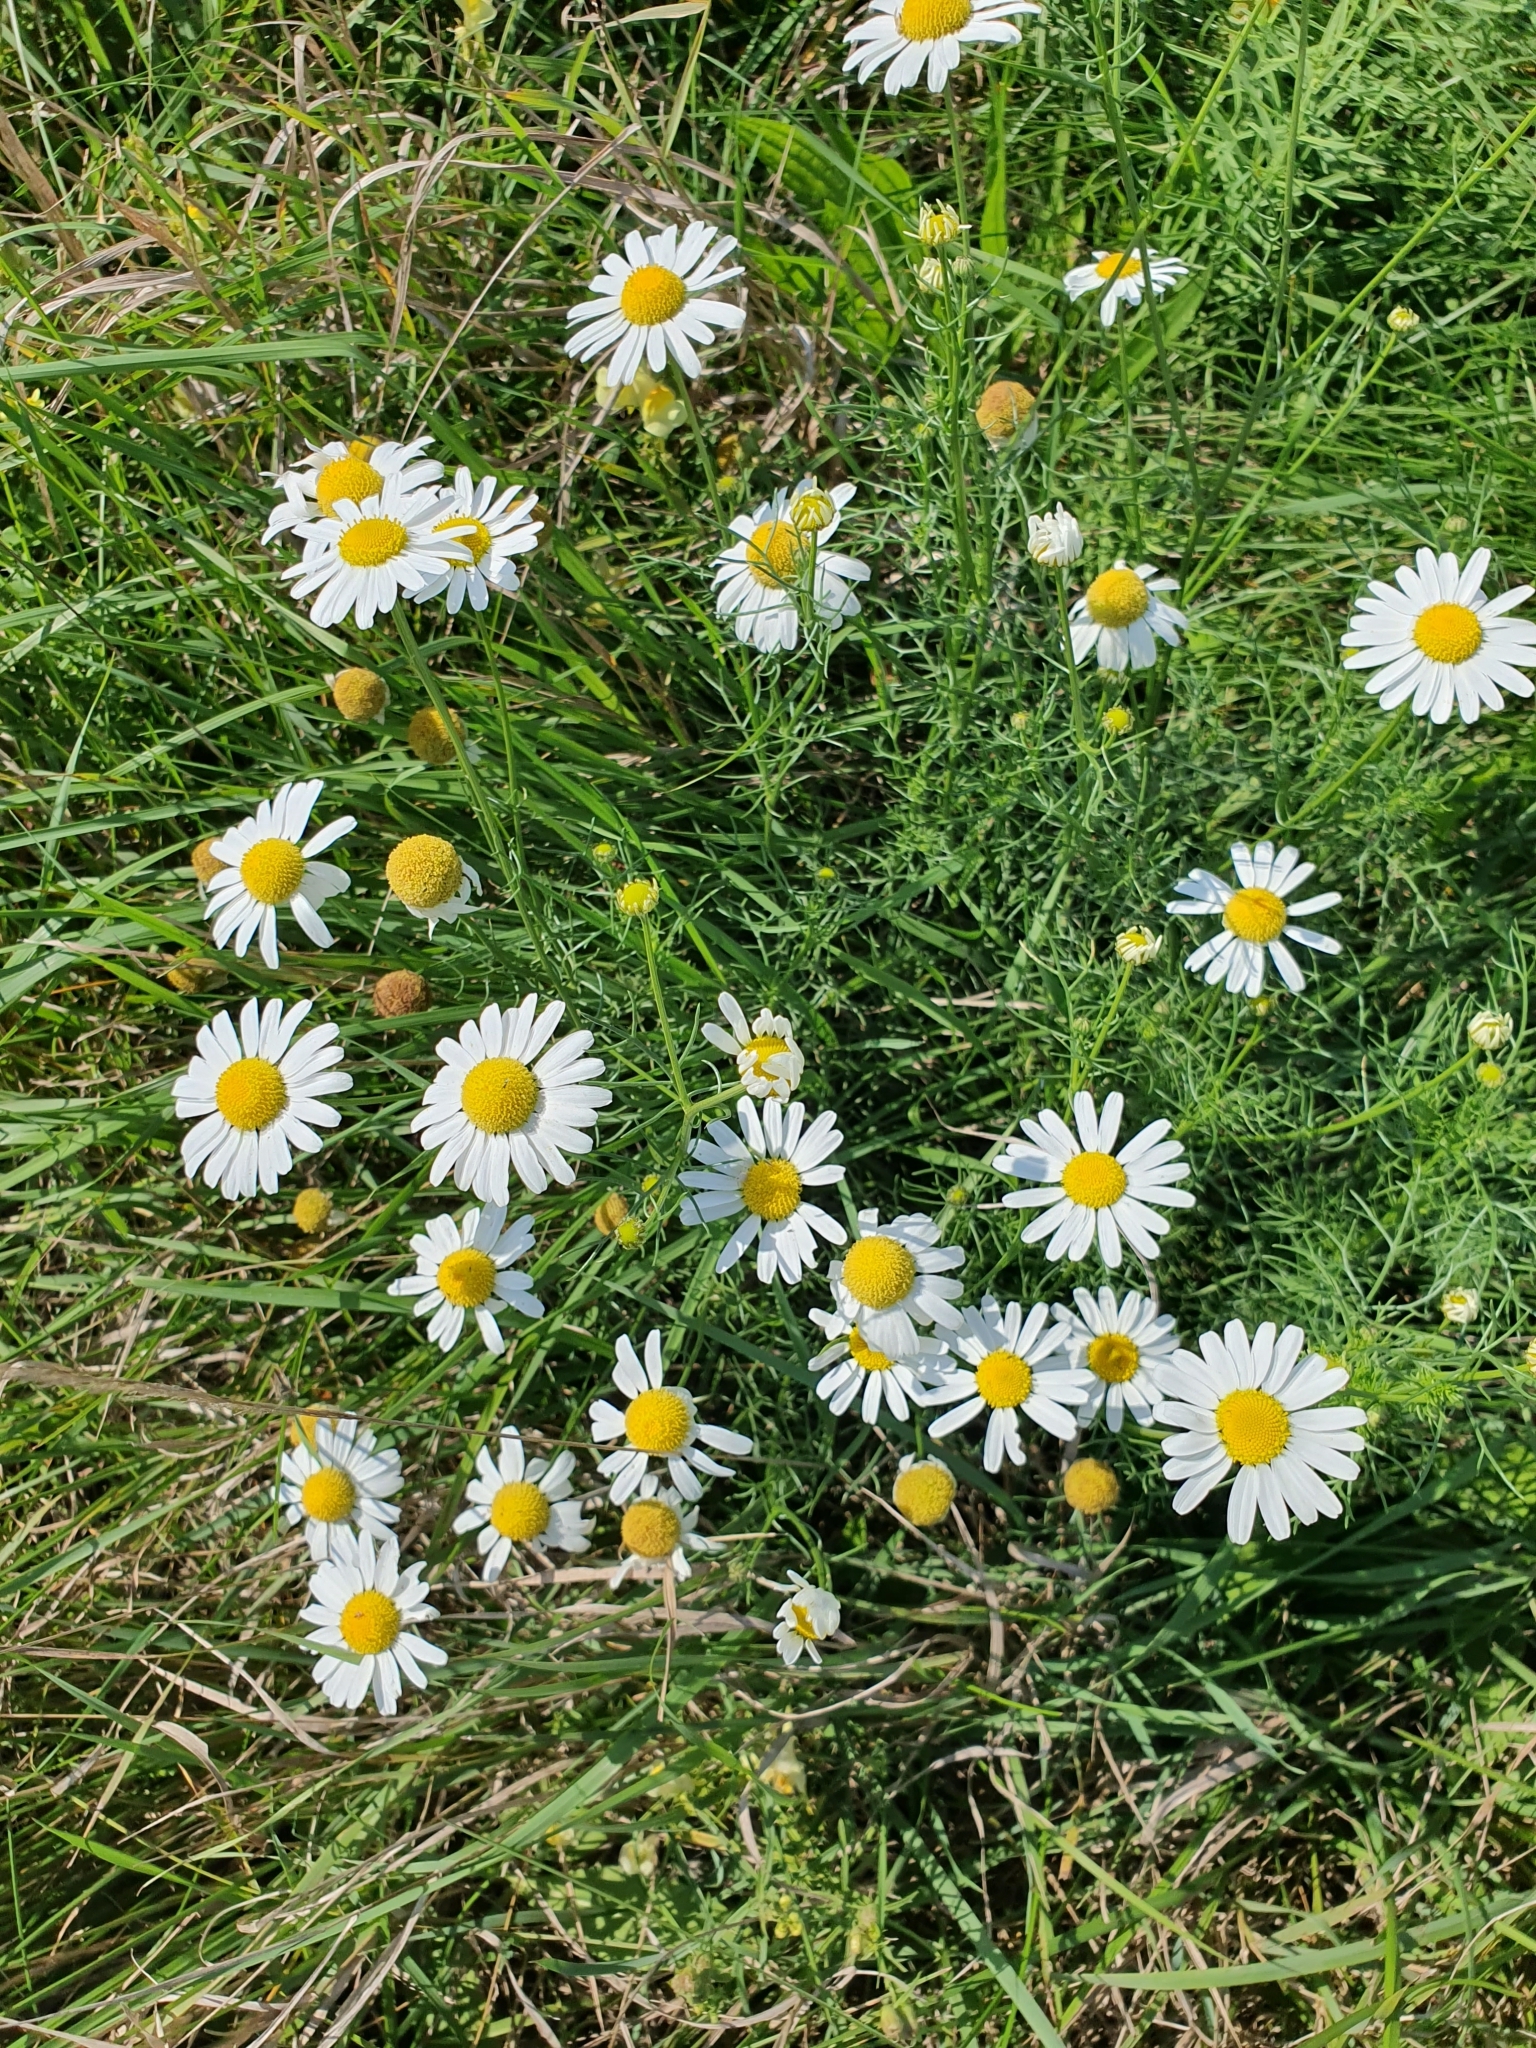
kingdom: Plantae
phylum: Tracheophyta
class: Magnoliopsida
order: Asterales
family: Asteraceae
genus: Tripleurospermum
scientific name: Tripleurospermum inodorum
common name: Scentless mayweed
